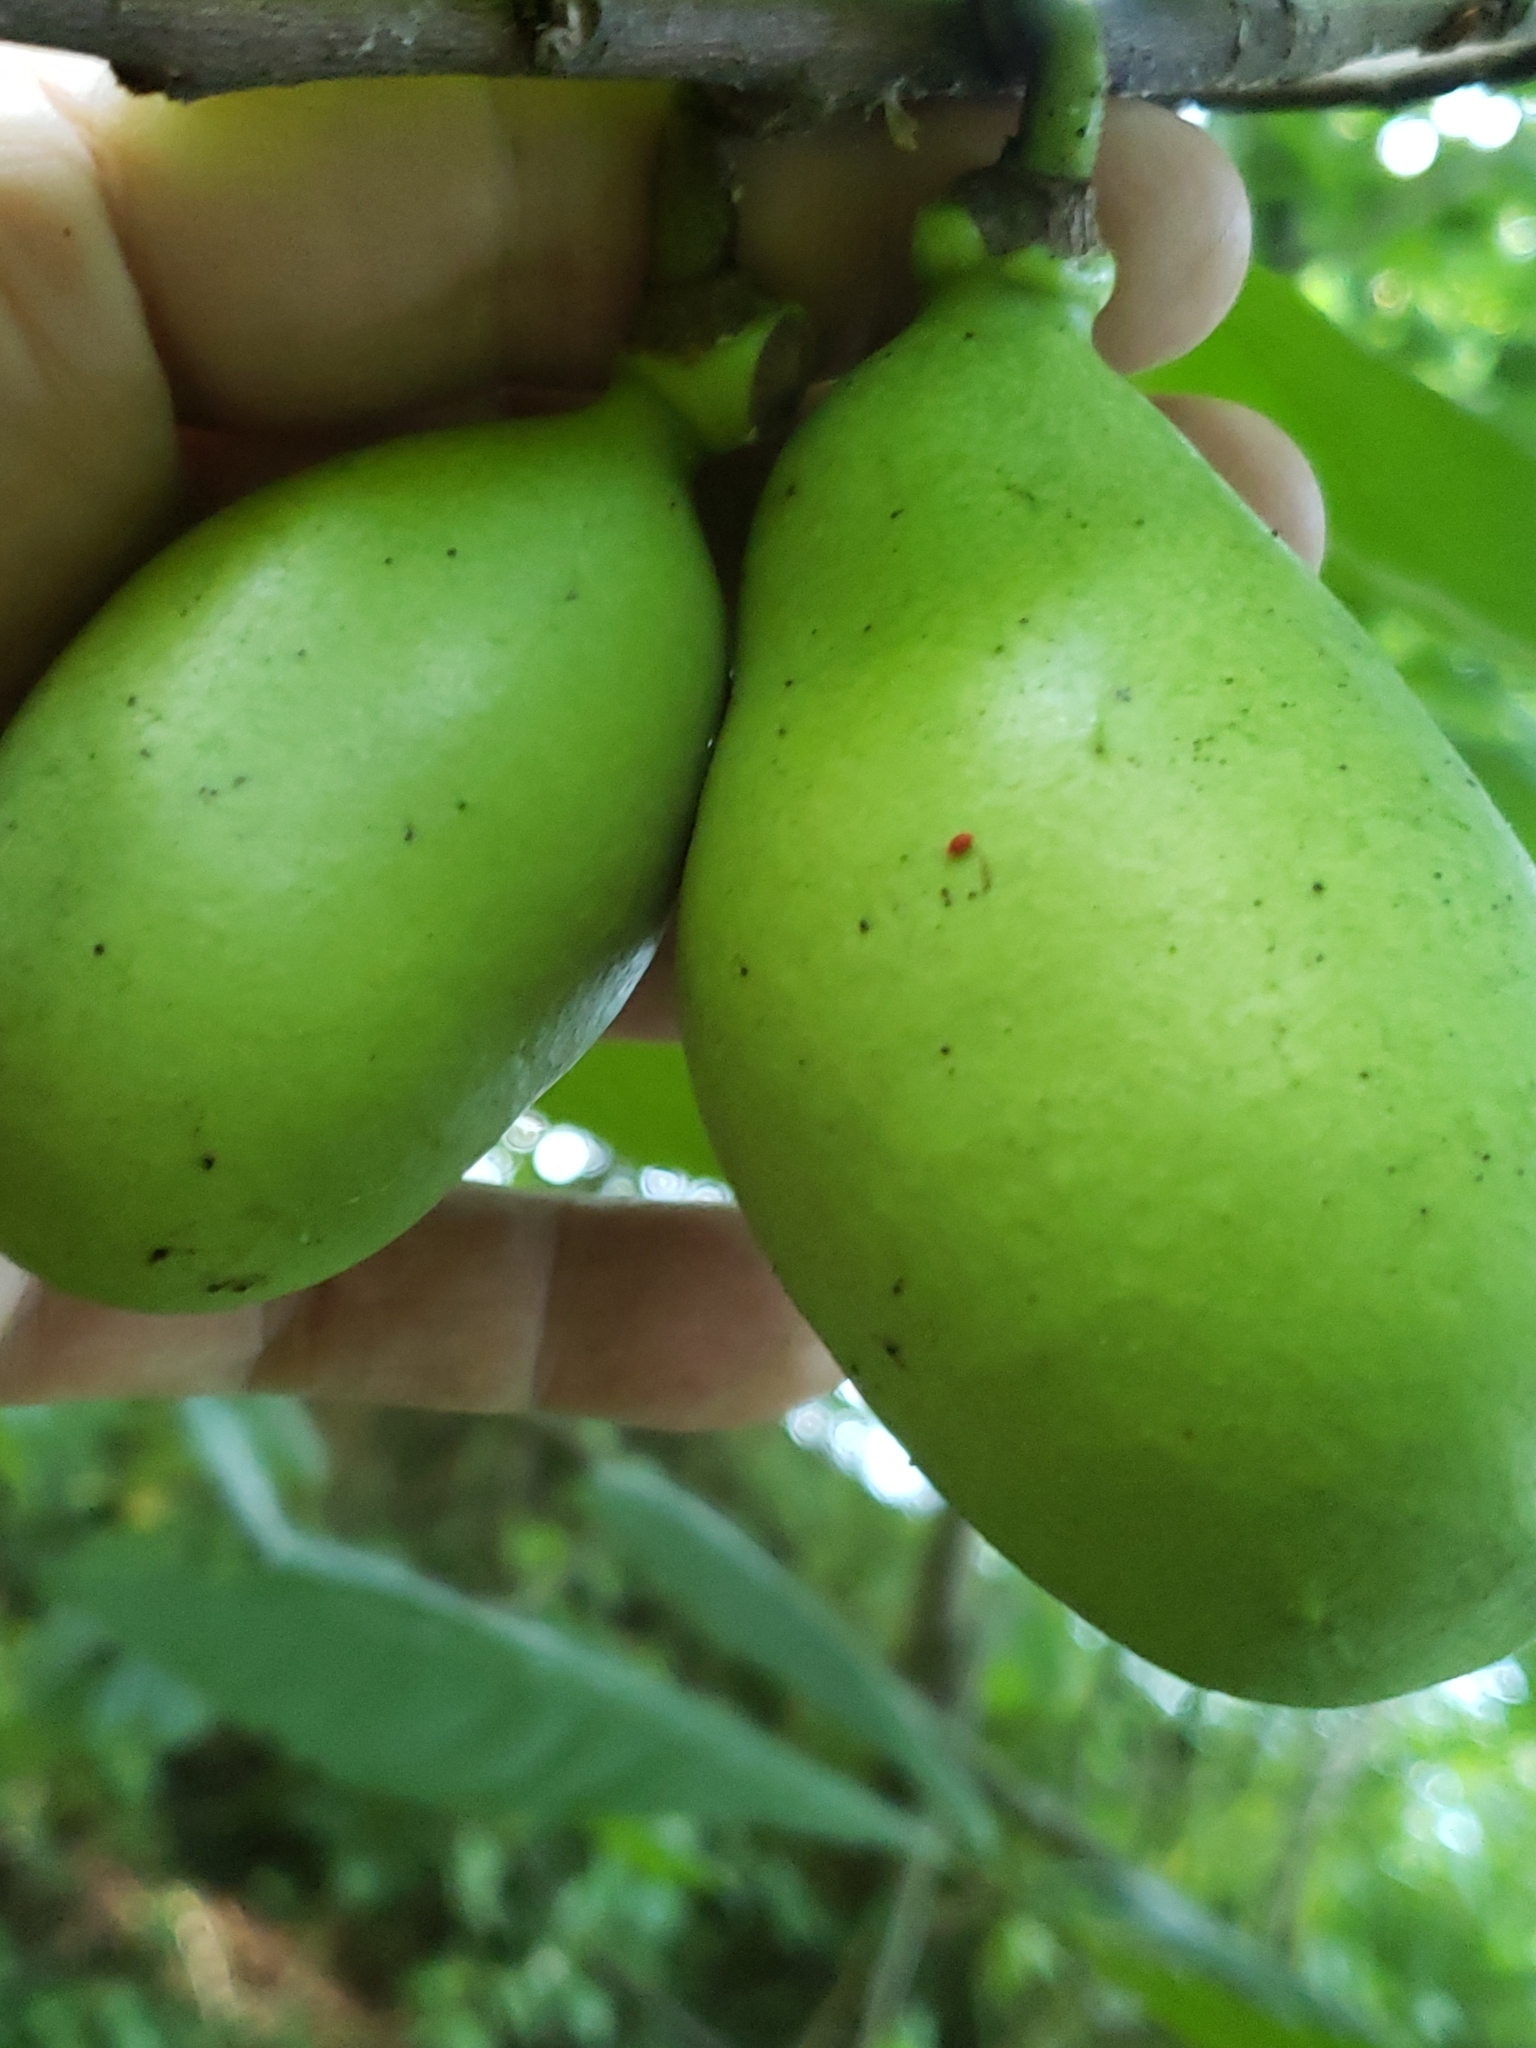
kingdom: Plantae
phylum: Tracheophyta
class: Magnoliopsida
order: Magnoliales
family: Annonaceae
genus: Asimina
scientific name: Asimina triloba
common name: Dog-banana
